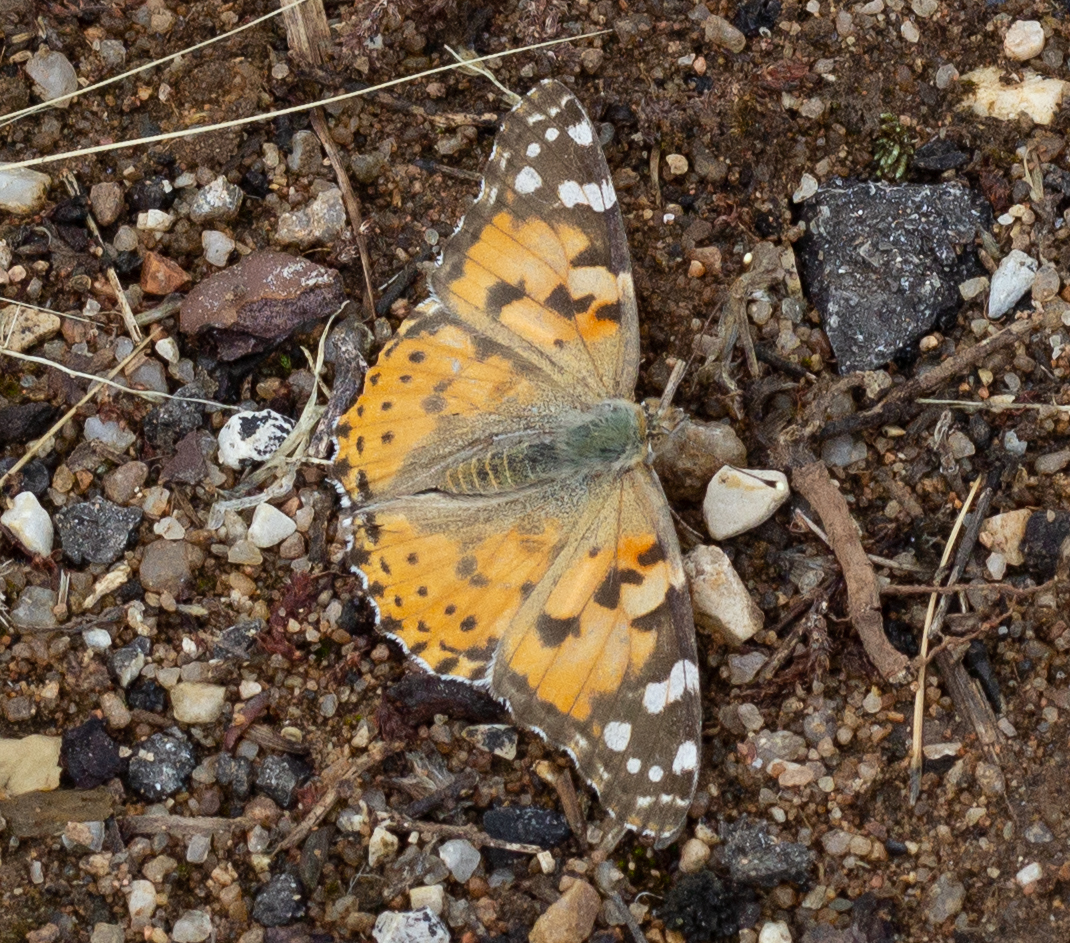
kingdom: Animalia
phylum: Arthropoda
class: Insecta
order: Lepidoptera
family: Nymphalidae
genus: Vanessa
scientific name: Vanessa cardui
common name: Painted lady
